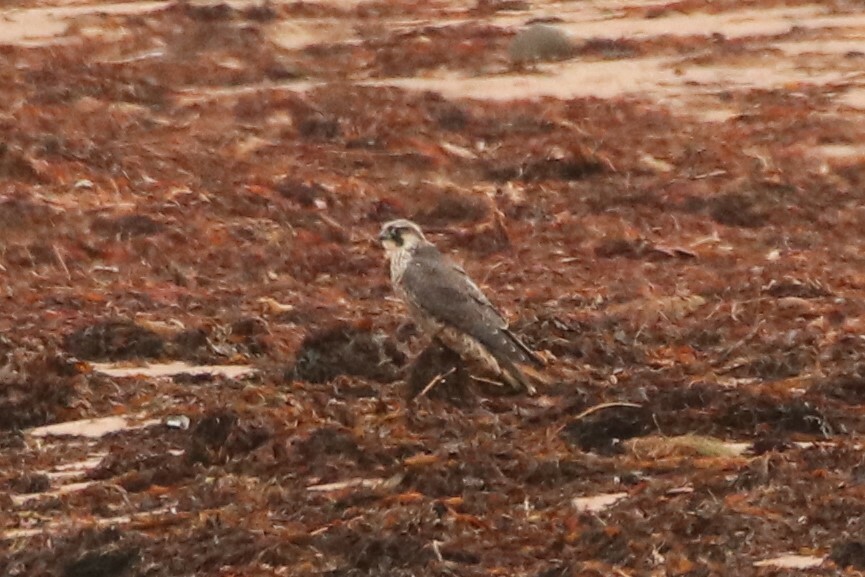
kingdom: Animalia
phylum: Chordata
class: Aves
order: Falconiformes
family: Falconidae
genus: Falco
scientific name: Falco peregrinus
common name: Peregrine falcon
